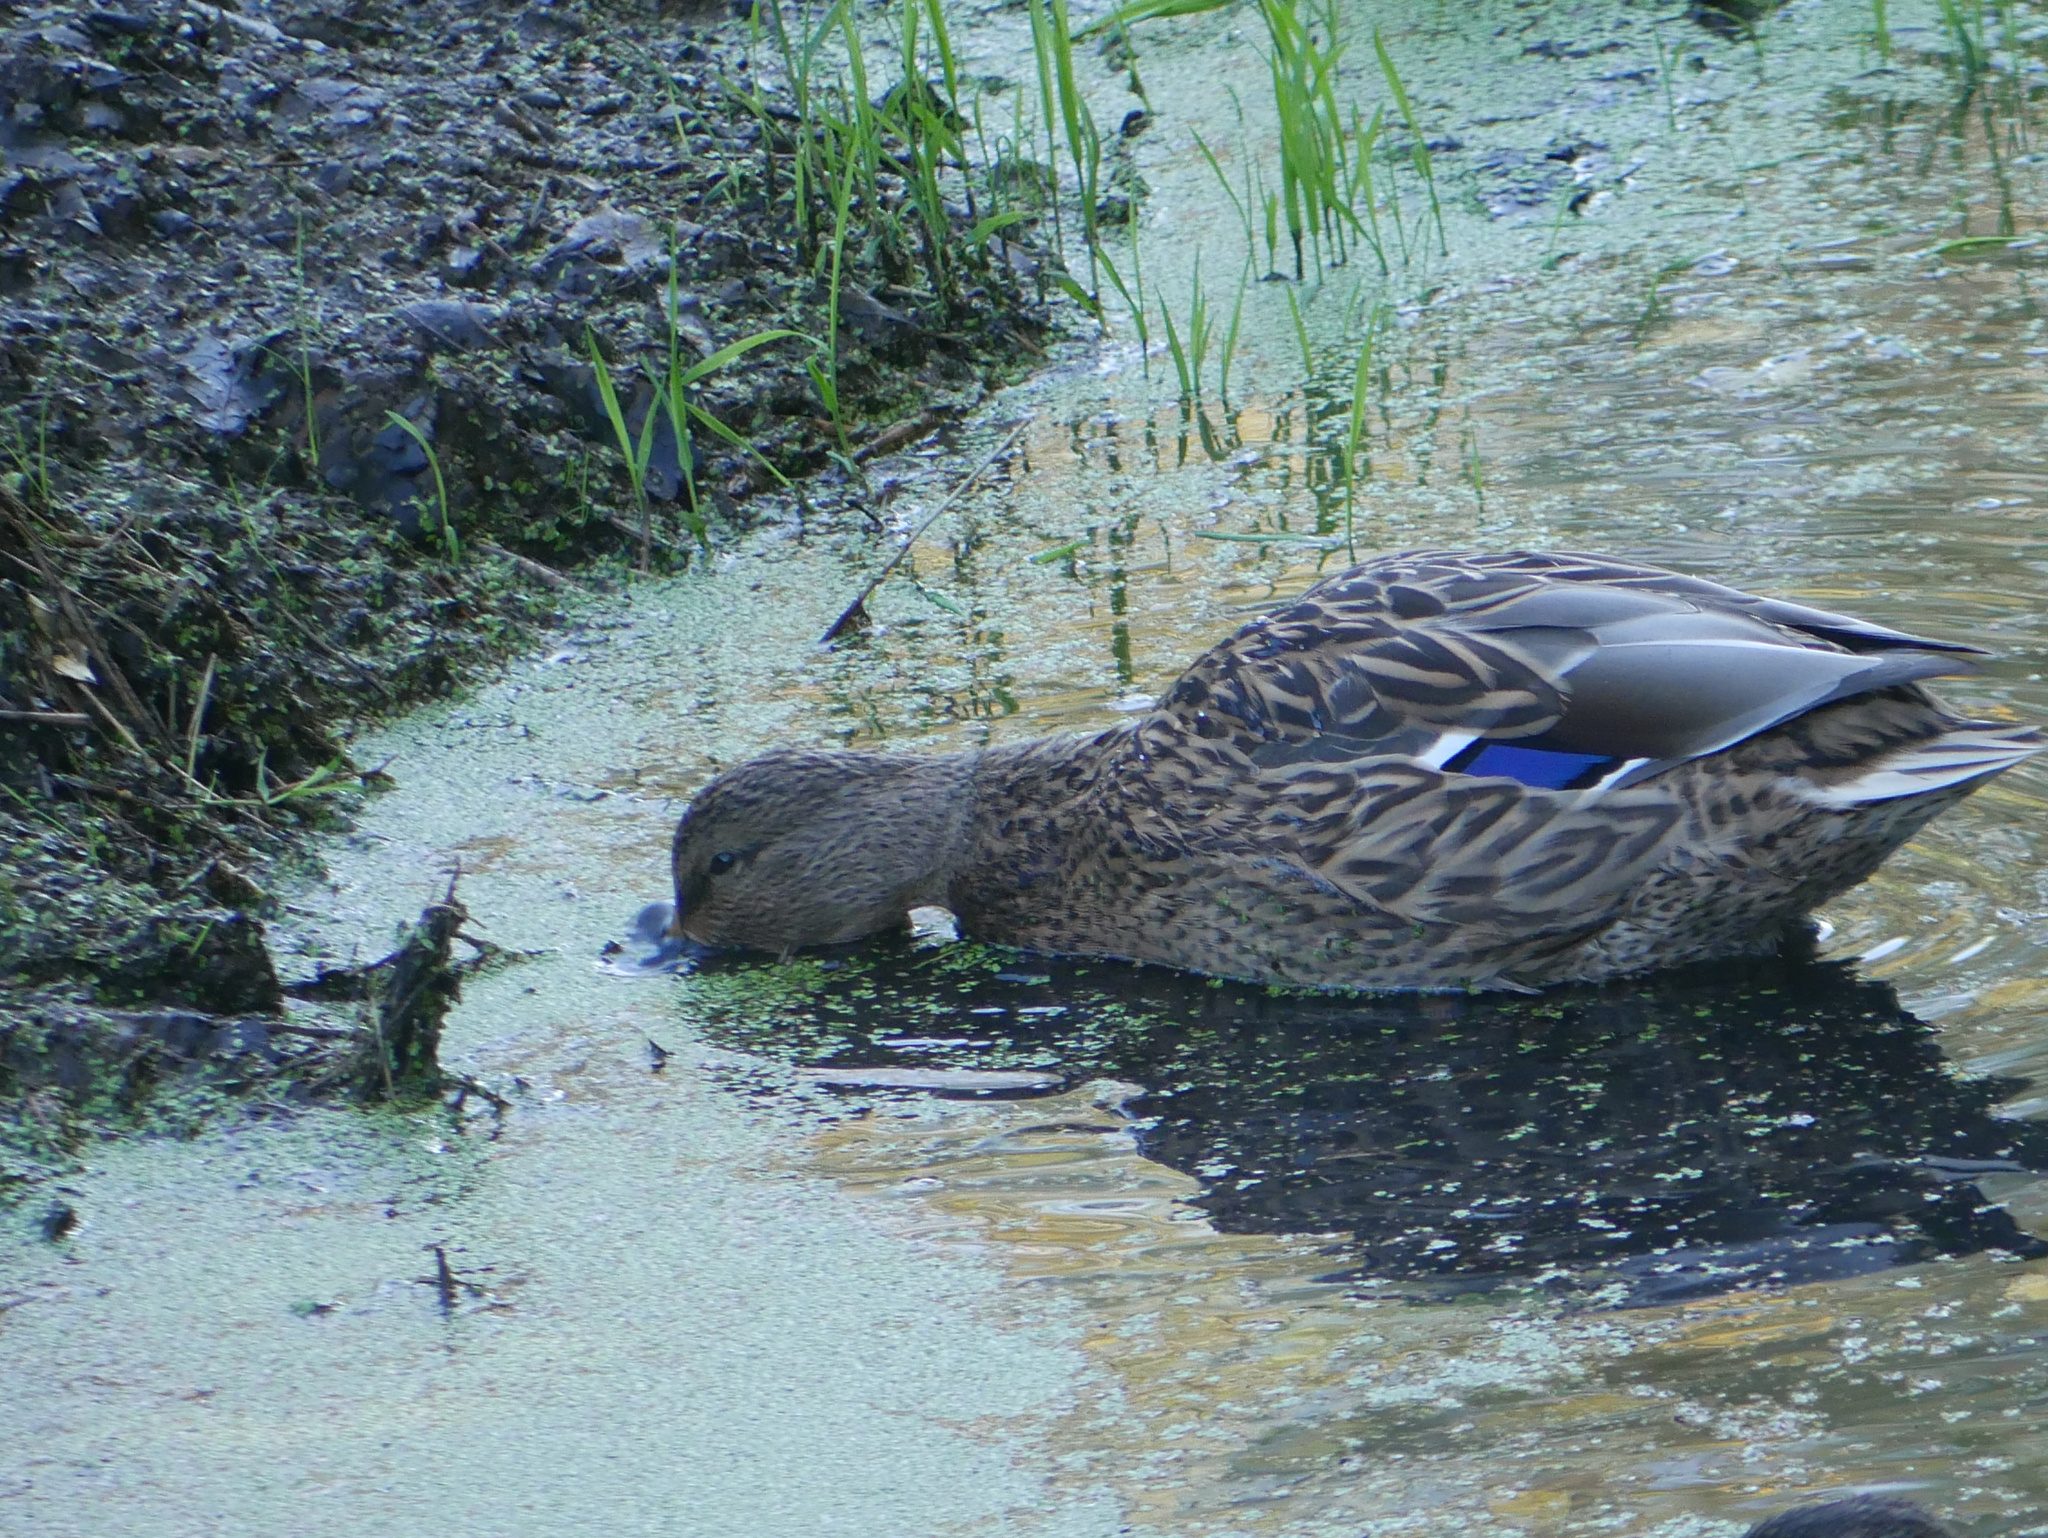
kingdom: Animalia
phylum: Chordata
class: Aves
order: Anseriformes
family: Anatidae
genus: Anas
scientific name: Anas platyrhynchos
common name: Mallard
